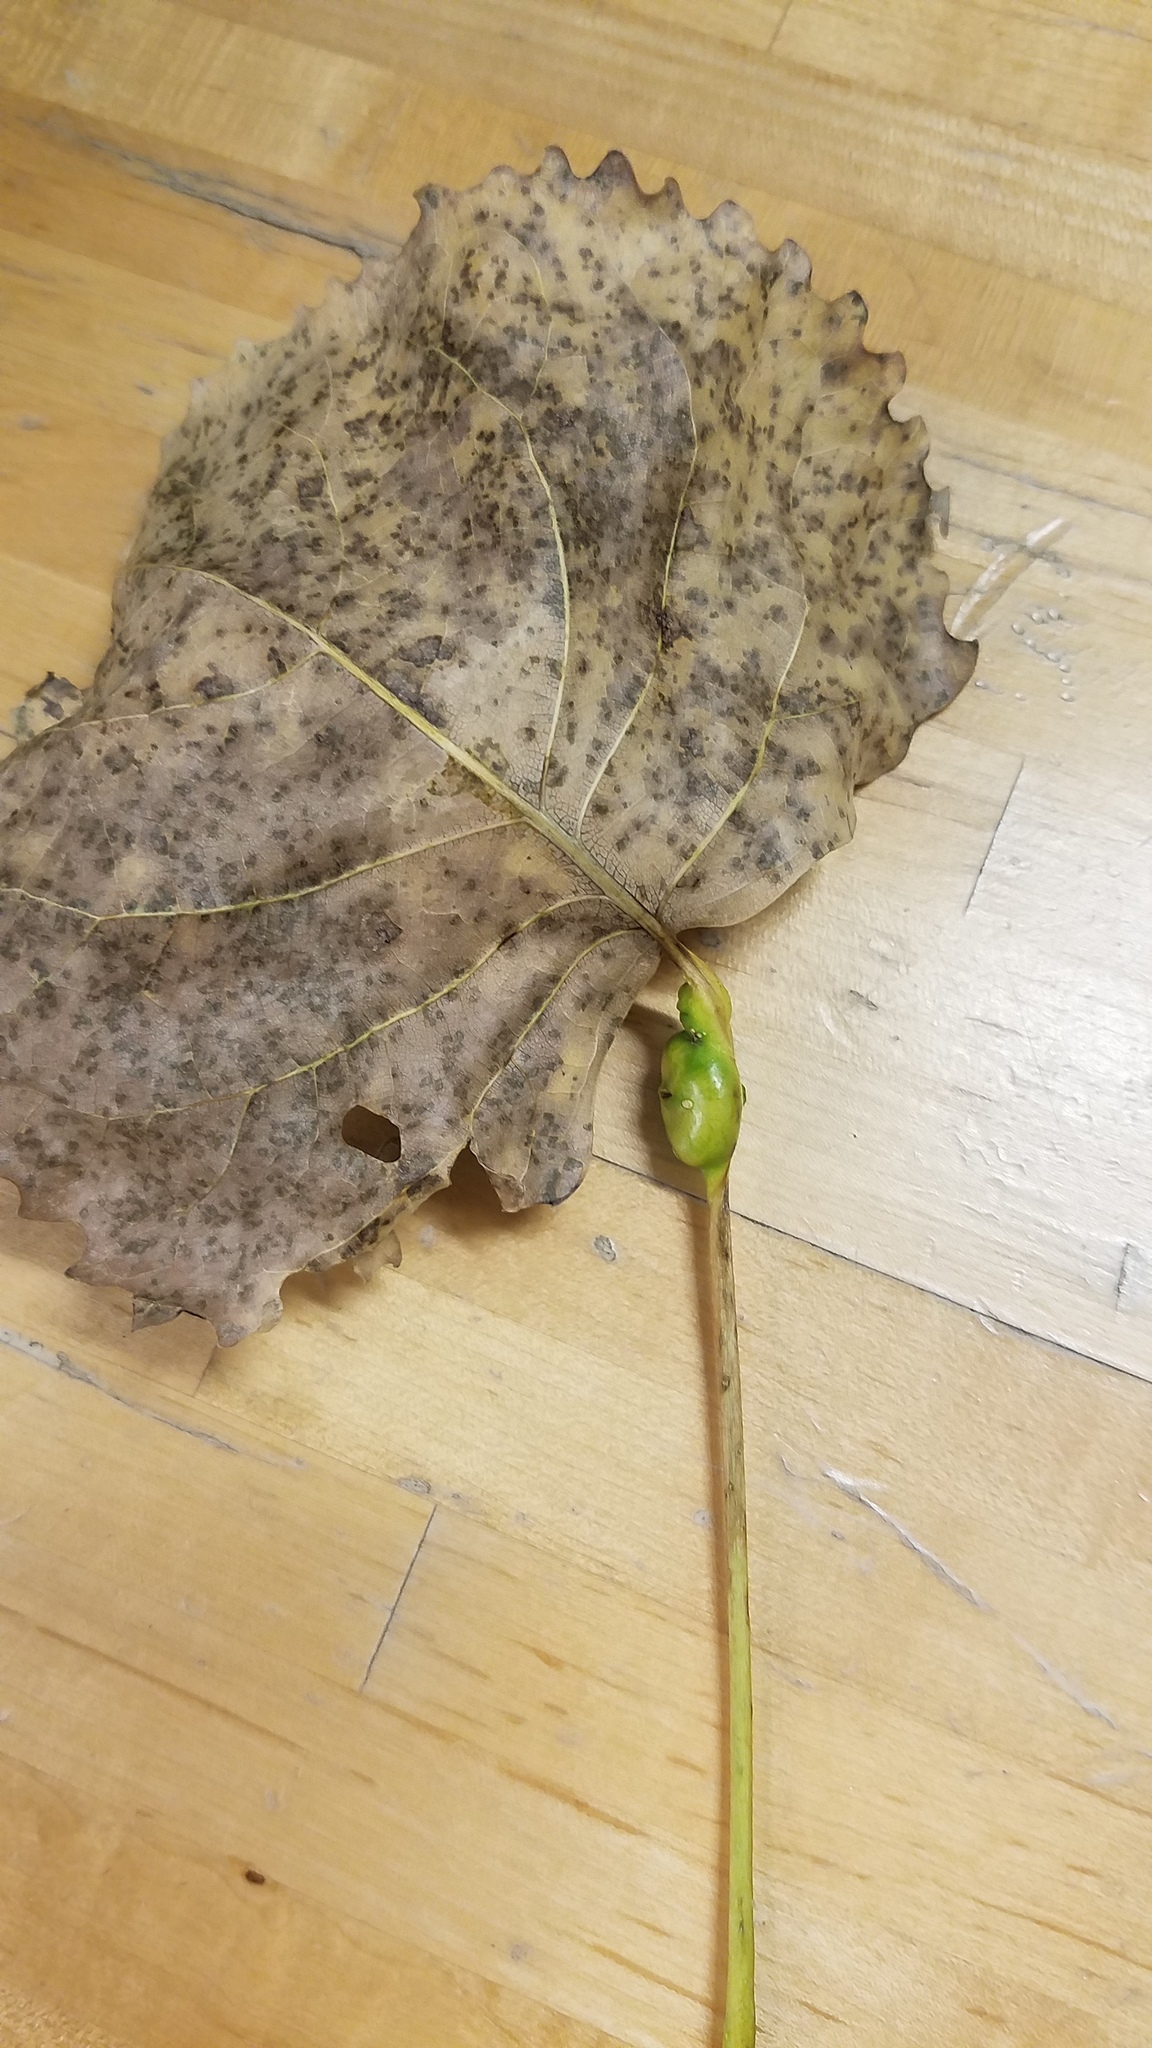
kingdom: Animalia
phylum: Arthropoda
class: Insecta
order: Hemiptera
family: Aphididae
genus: Pemphigus
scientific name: Pemphigus populitransversus
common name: Poplar petiolegall aphid
